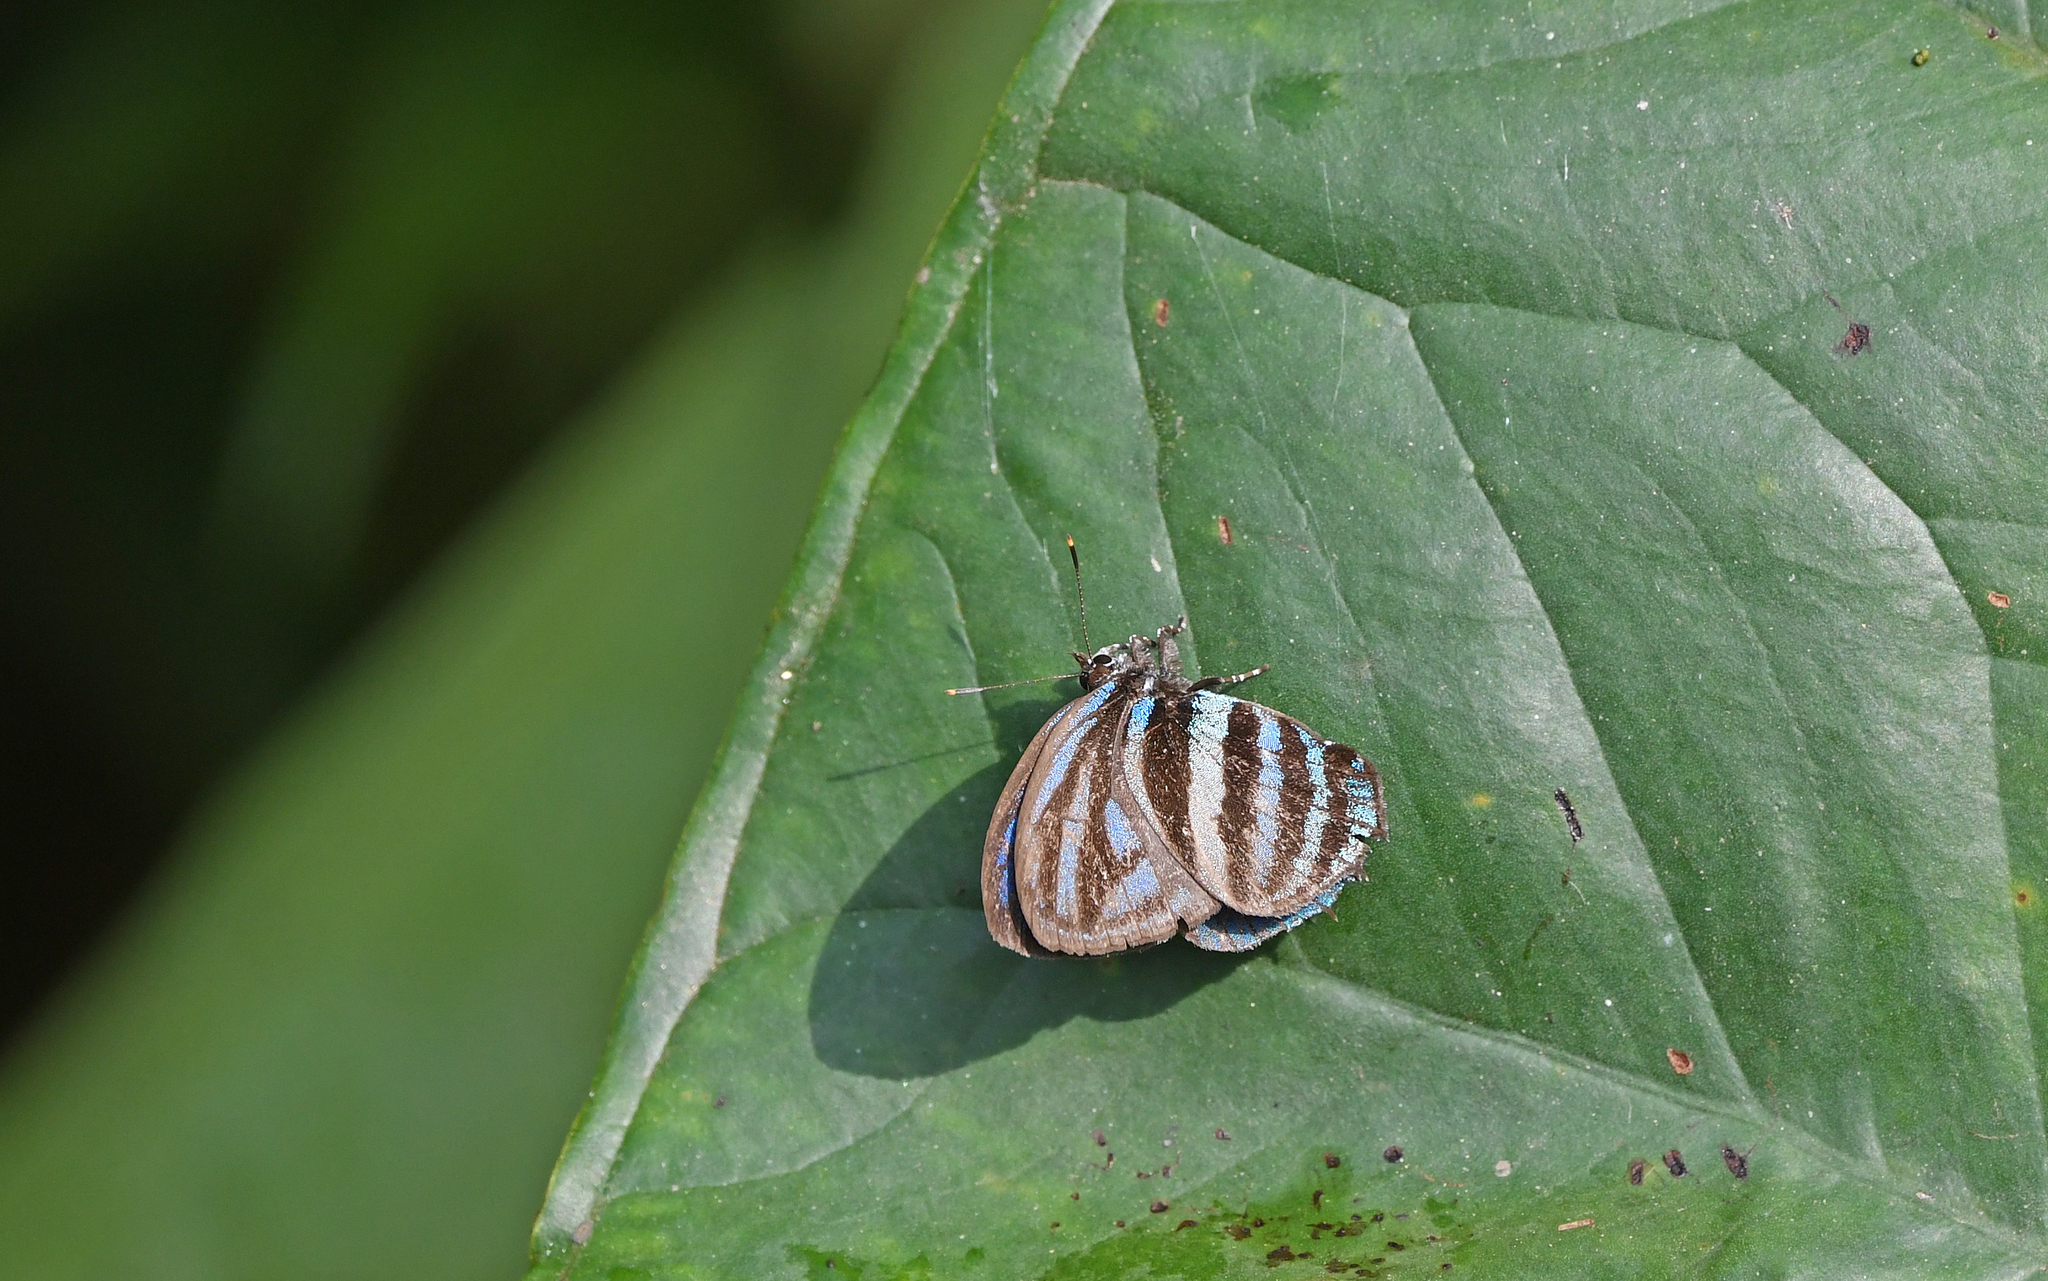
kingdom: Animalia
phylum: Arthropoda
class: Insecta
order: Lepidoptera
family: Lycaenidae
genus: Thestius
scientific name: Thestius
